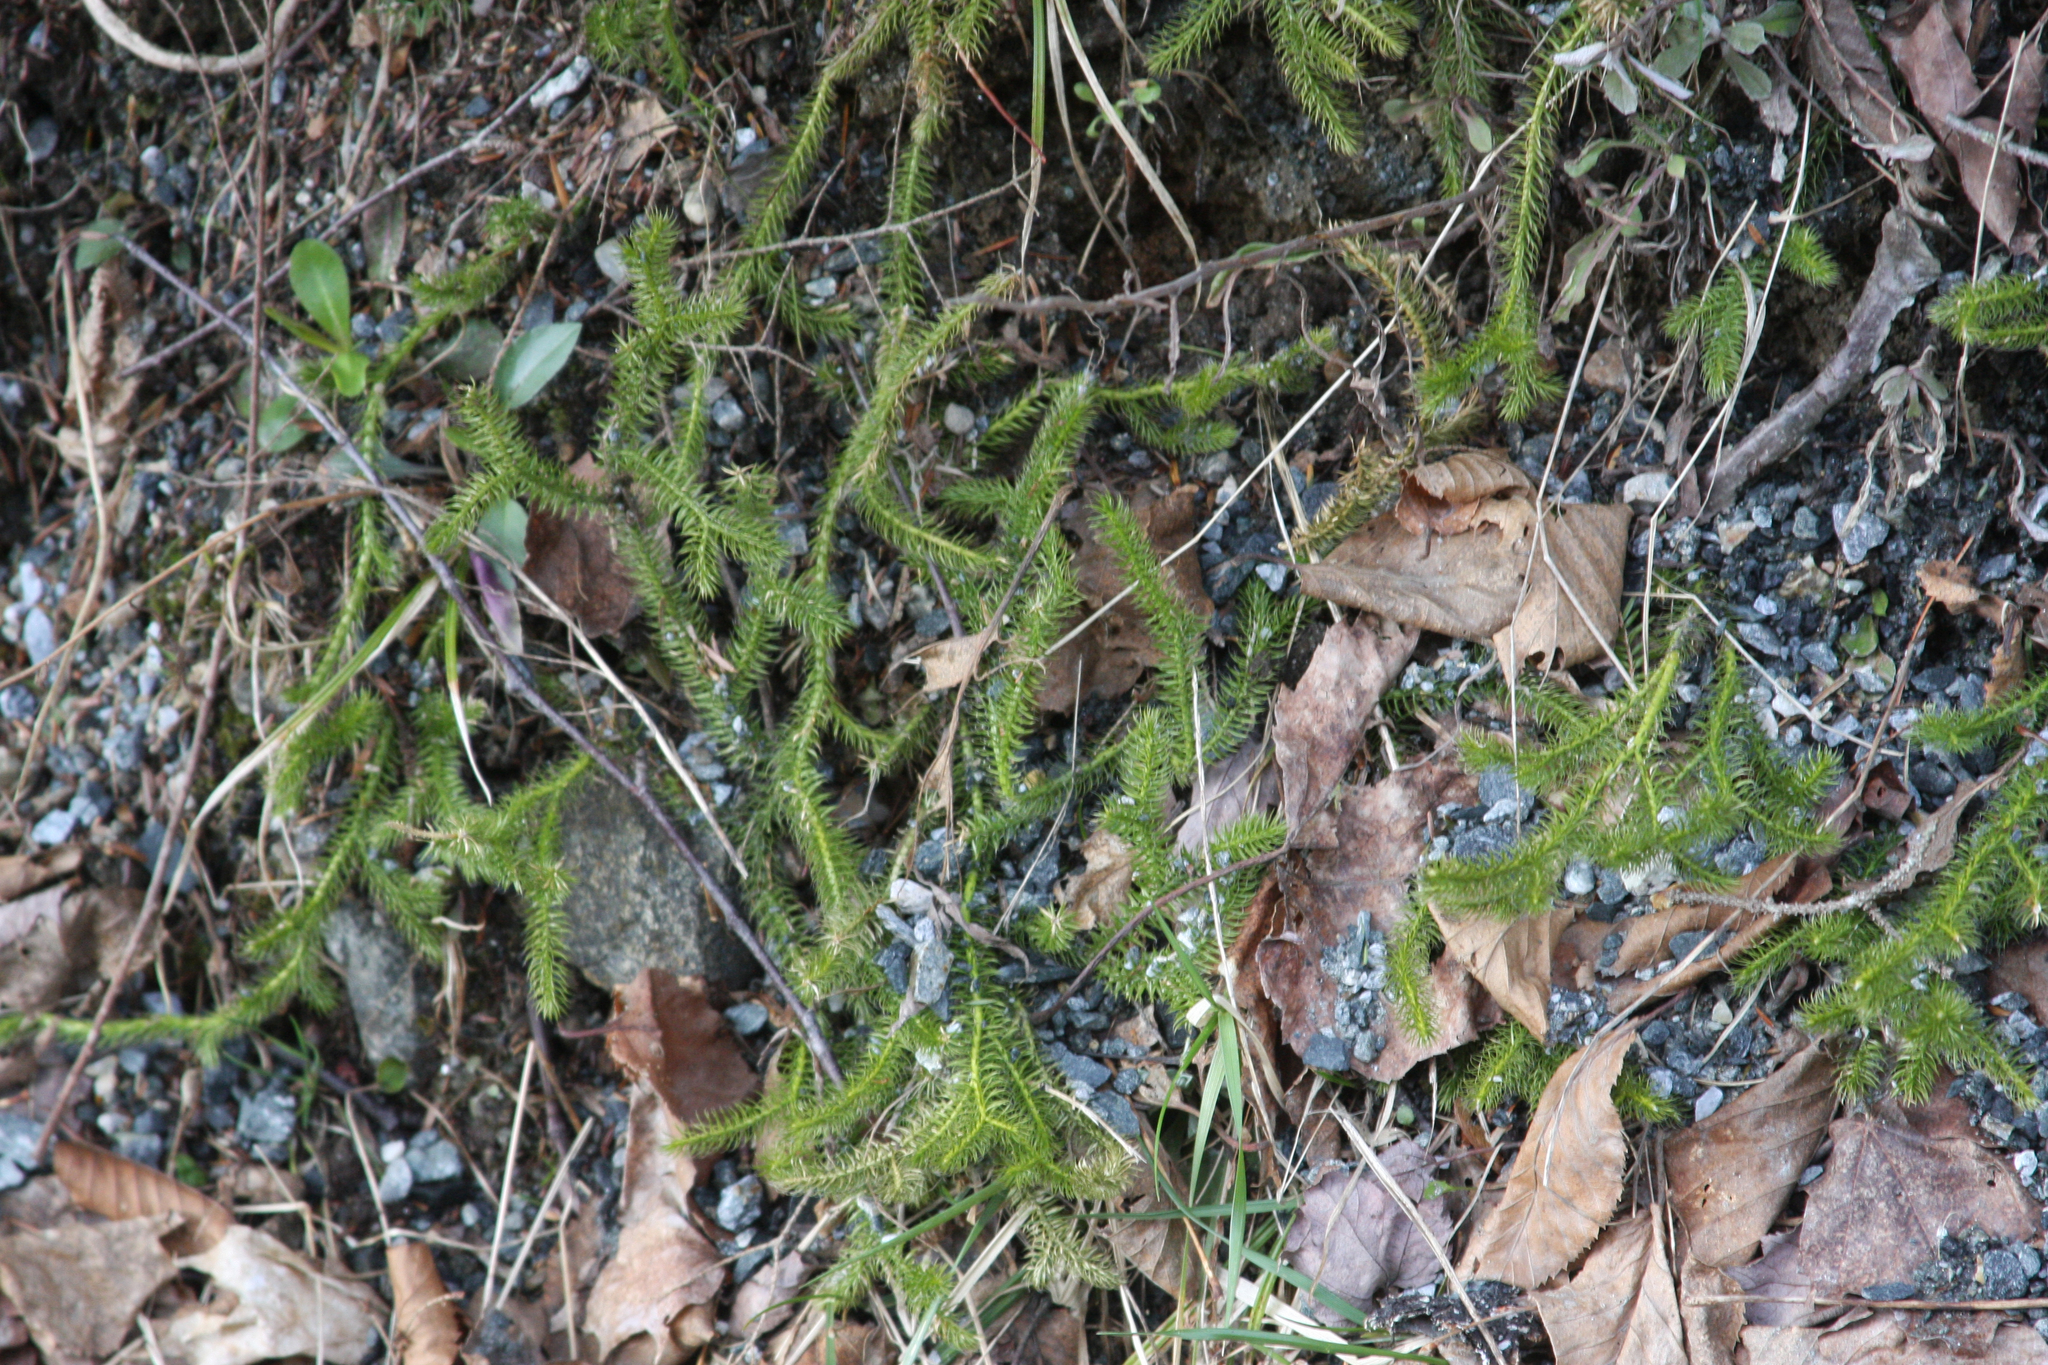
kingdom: Plantae
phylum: Tracheophyta
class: Lycopodiopsida
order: Lycopodiales
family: Lycopodiaceae
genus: Lycopodium
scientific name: Lycopodium clavatum
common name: Stag's-horn clubmoss
